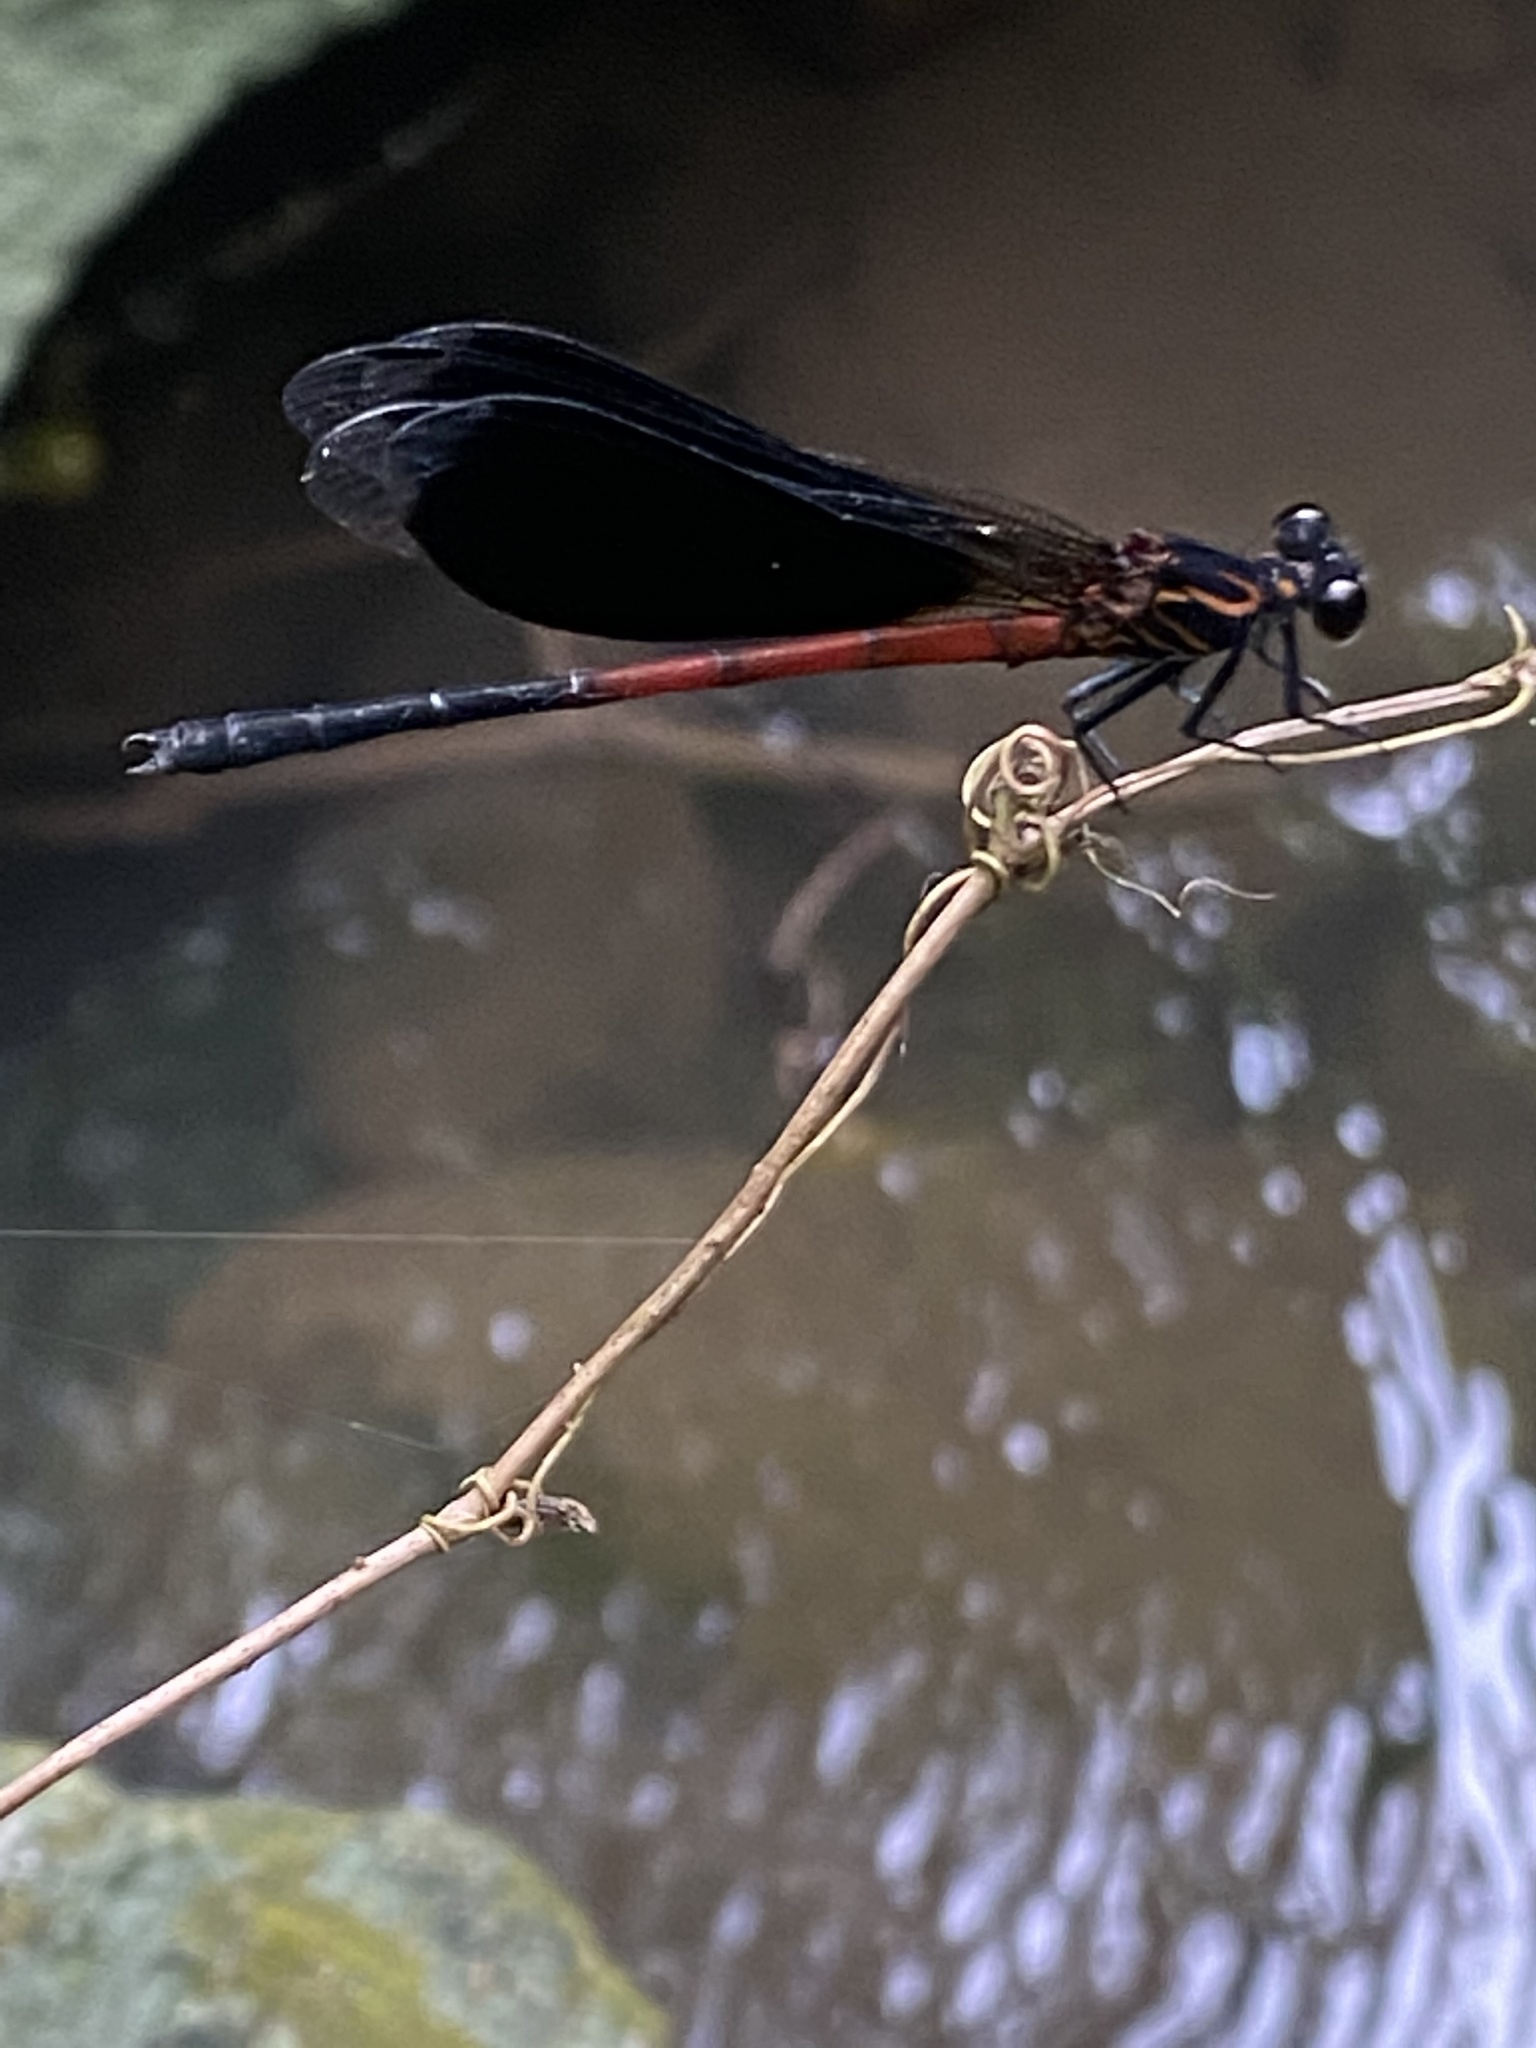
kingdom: Animalia
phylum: Arthropoda
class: Insecta
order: Odonata
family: Euphaeidae
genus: Euphaea
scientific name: Euphaea formosa
